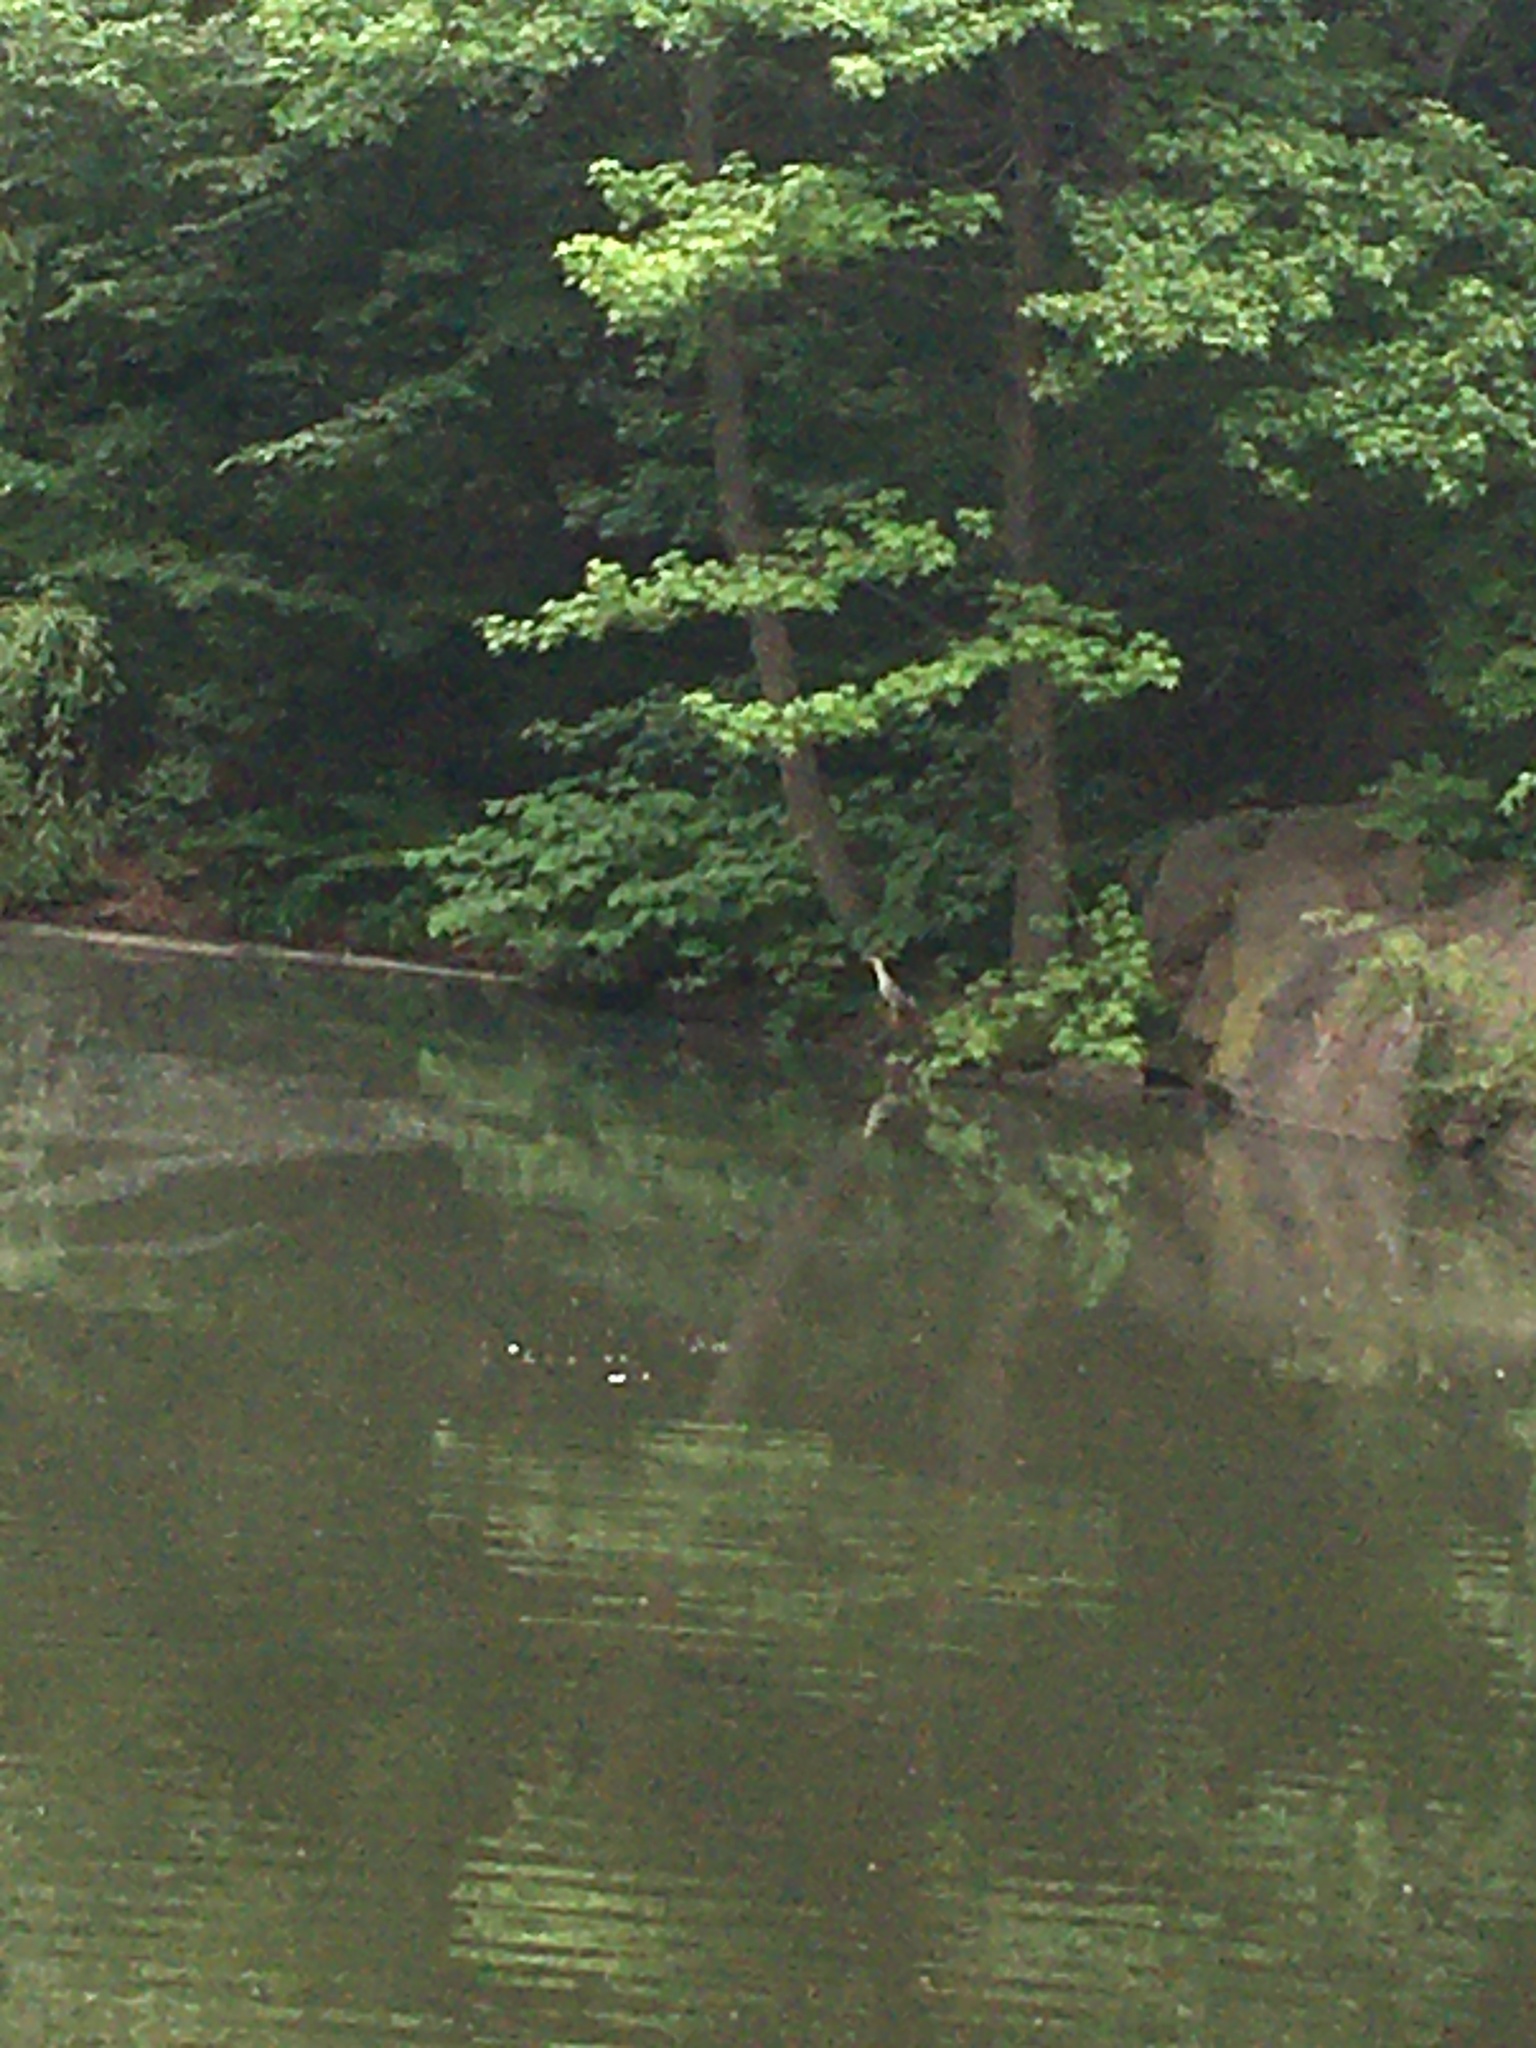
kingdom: Animalia
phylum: Chordata
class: Aves
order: Pelecaniformes
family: Ardeidae
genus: Nycticorax
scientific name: Nycticorax nycticorax
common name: Black-crowned night heron
